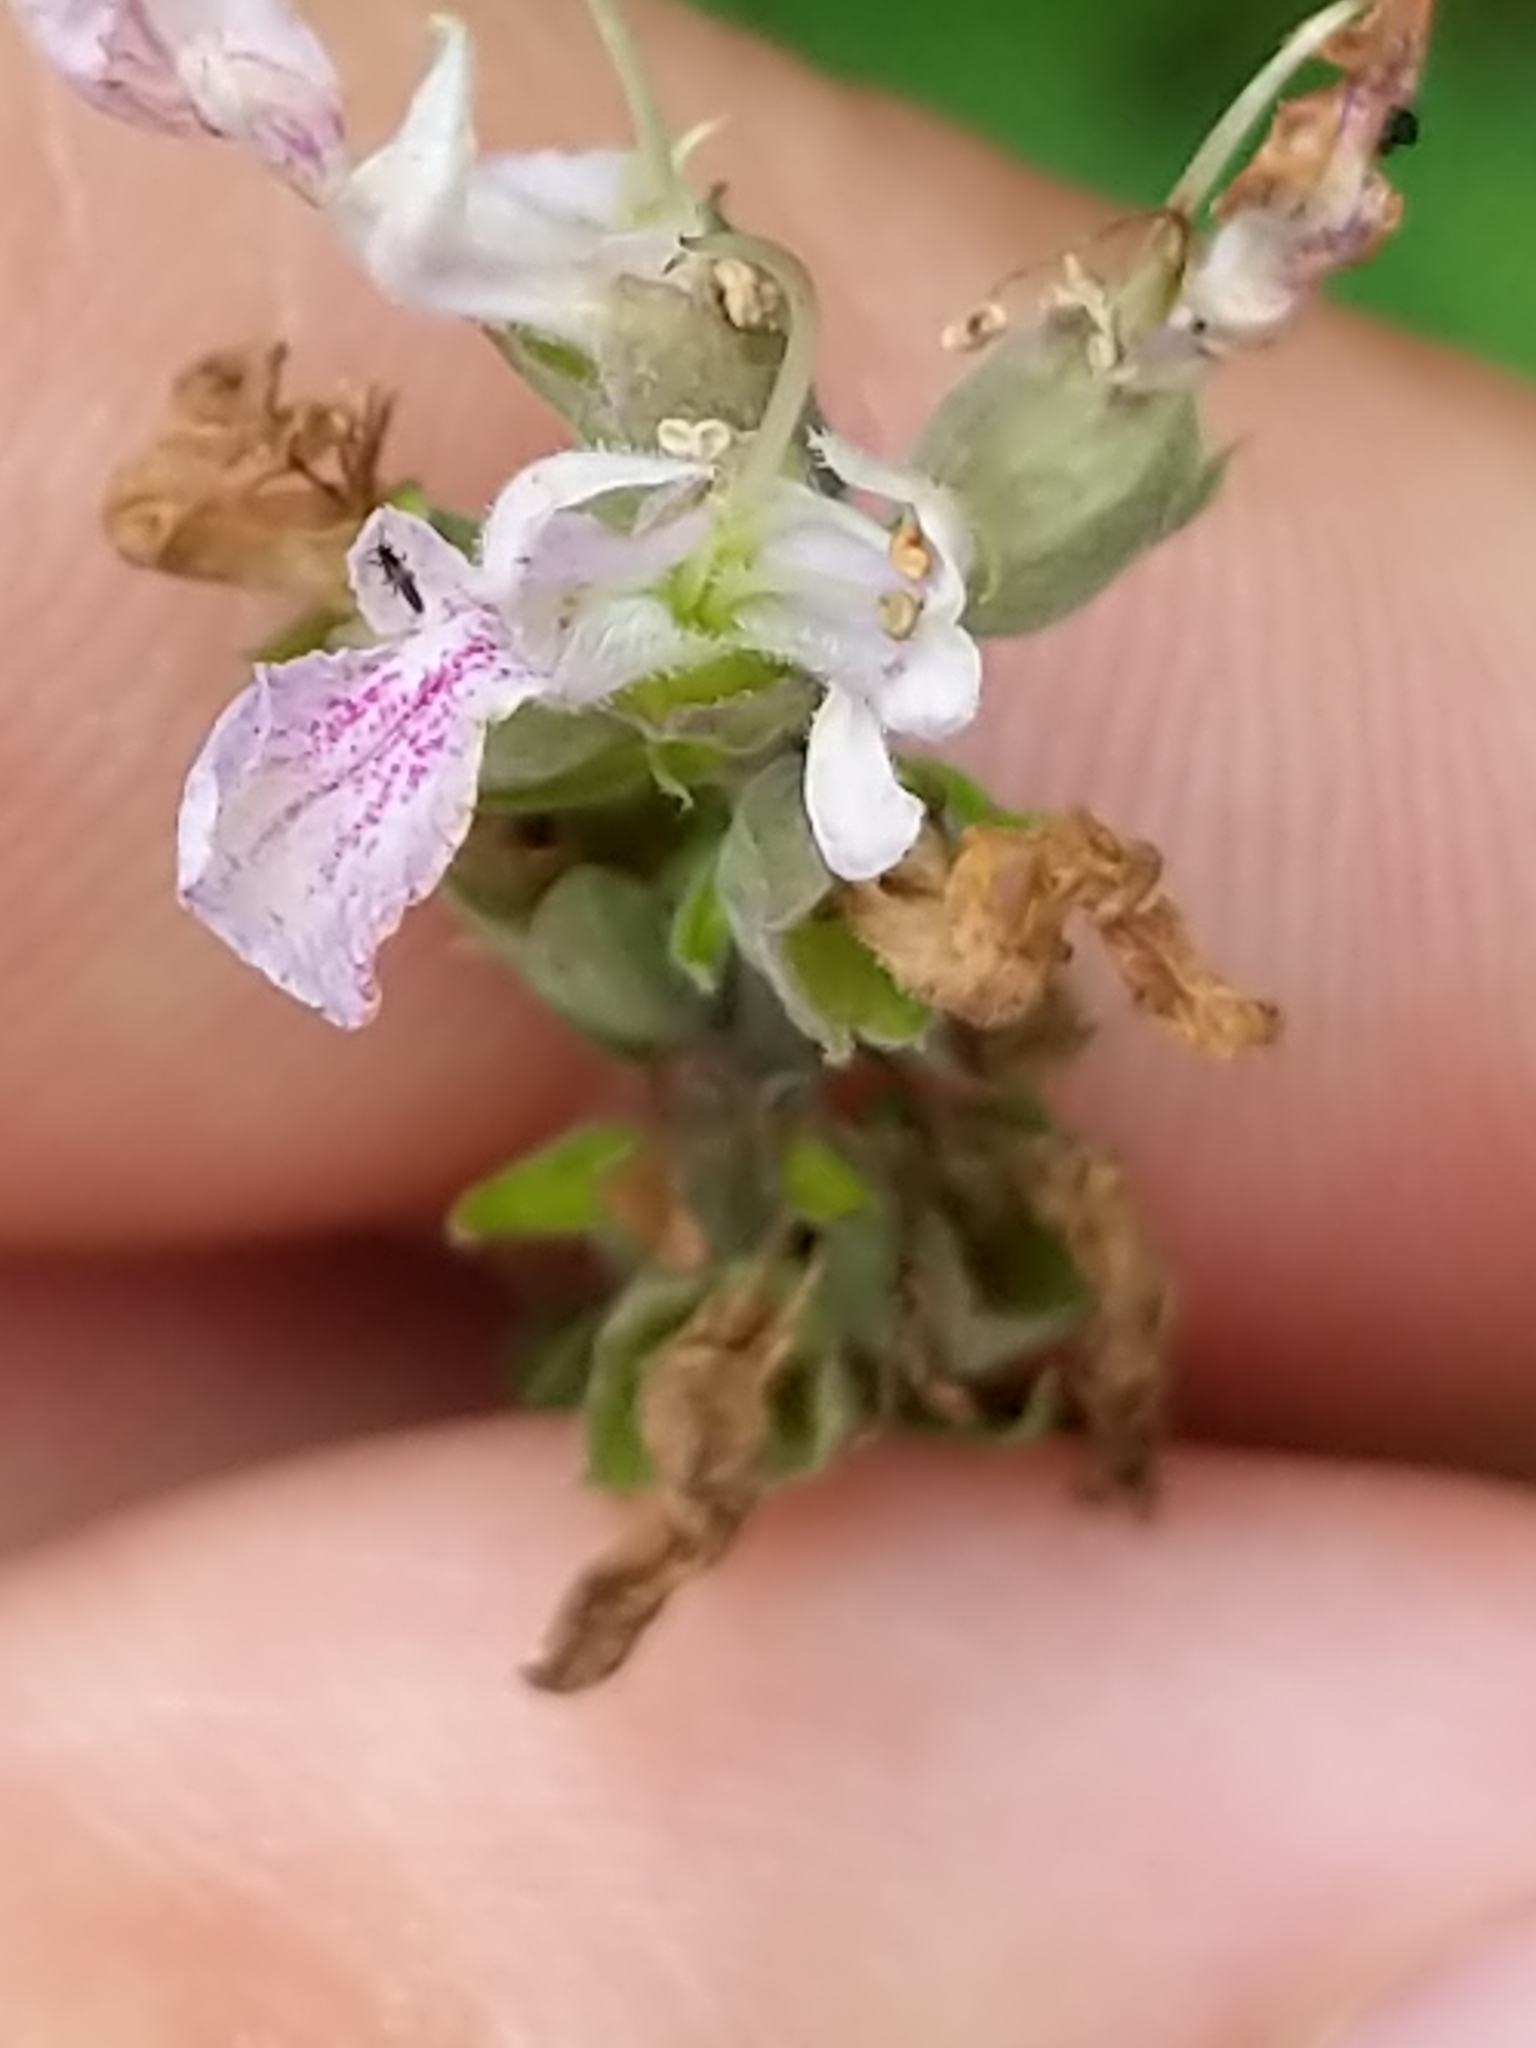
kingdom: Plantae
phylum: Tracheophyta
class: Magnoliopsida
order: Lamiales
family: Lamiaceae
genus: Teucrium
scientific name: Teucrium canadense
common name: American germander
